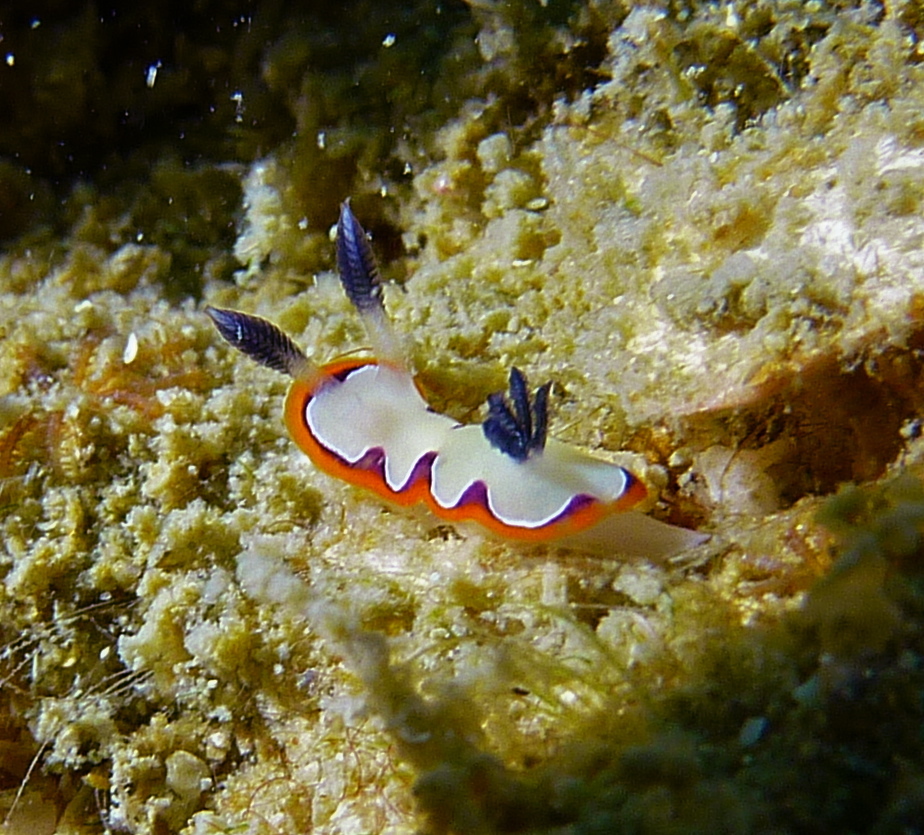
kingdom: Animalia
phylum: Mollusca
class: Gastropoda
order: Nudibranchia
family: Chromodorididae
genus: Goniobranchus
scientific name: Goniobranchus fidelis
